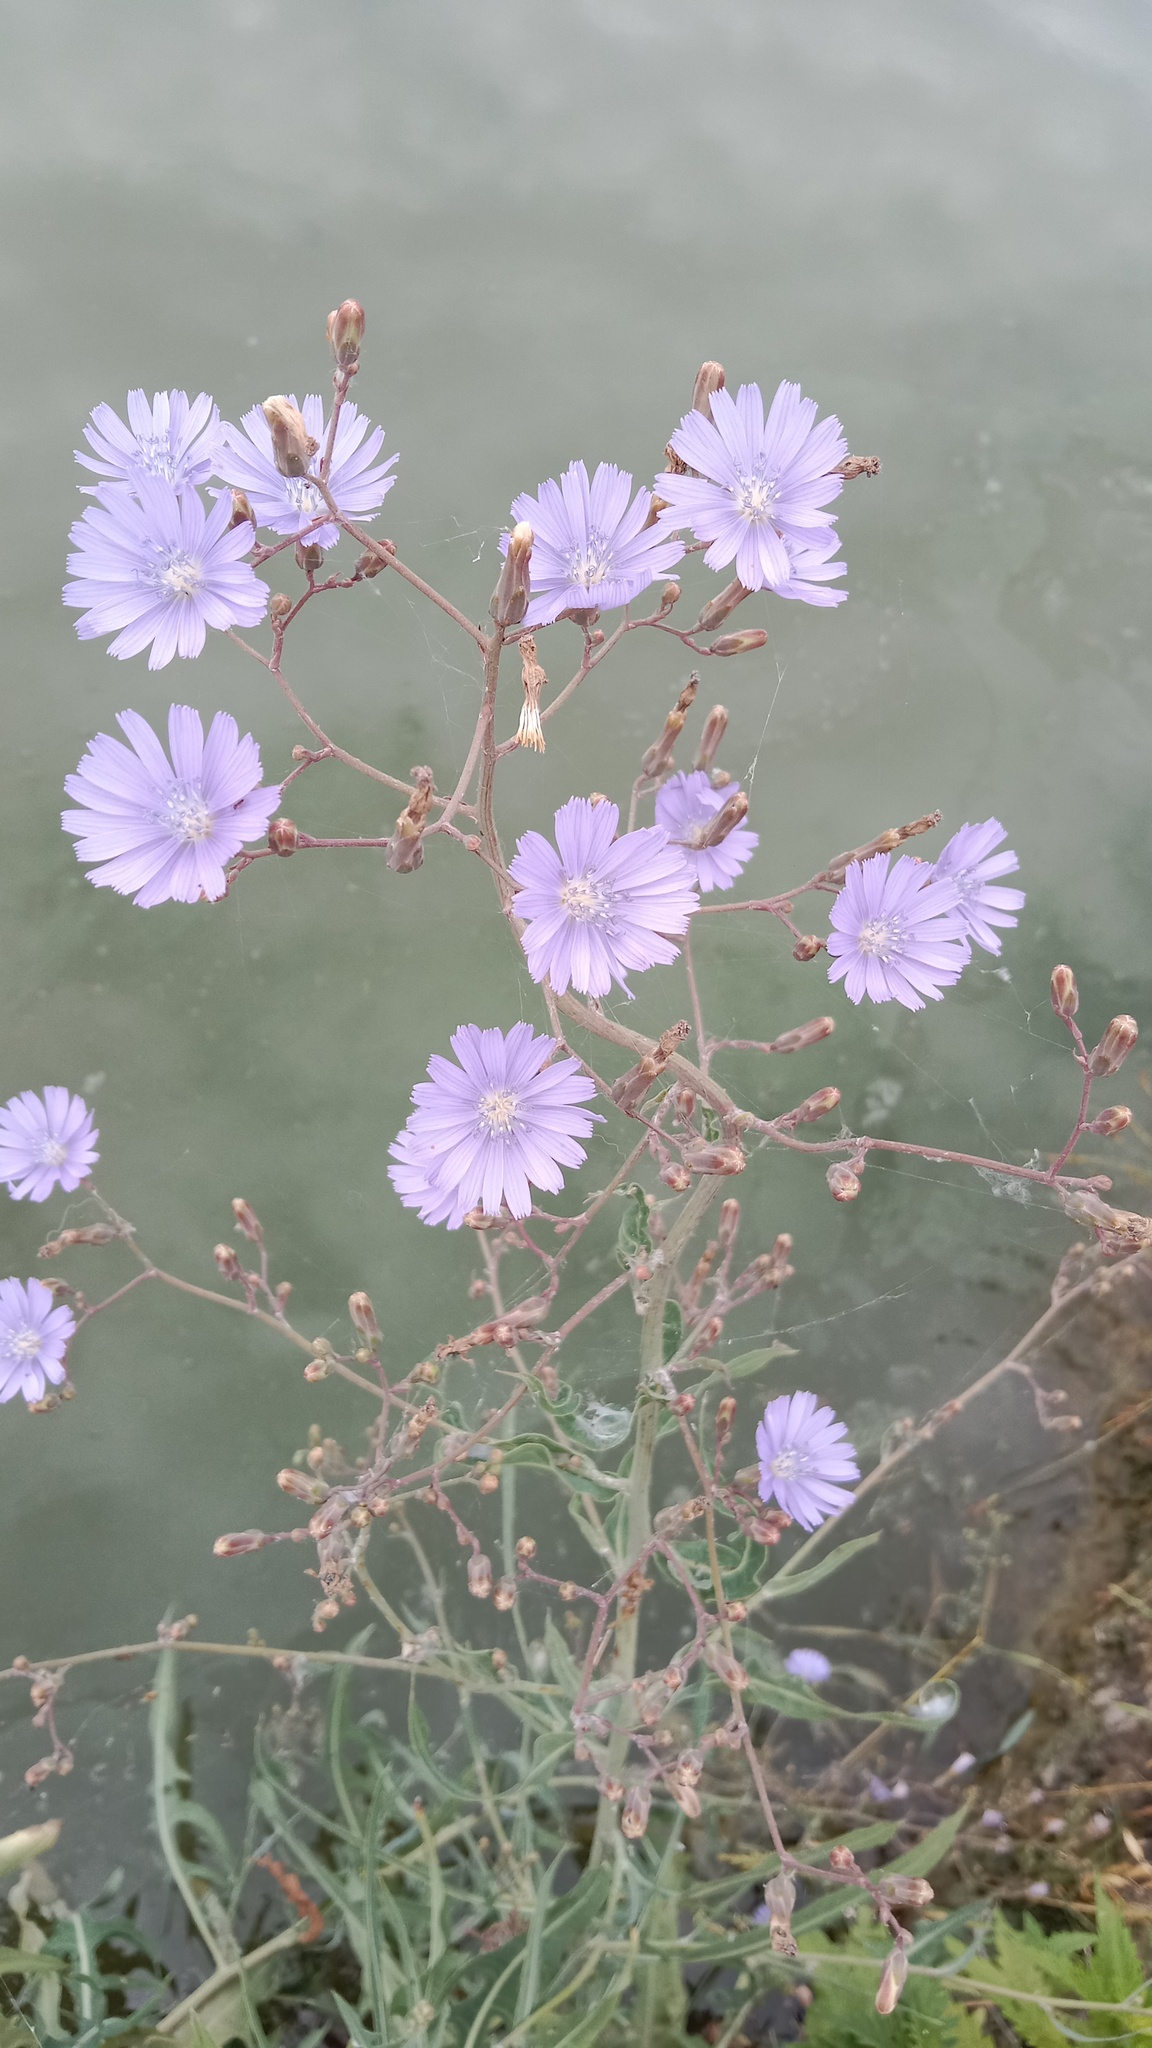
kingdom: Plantae
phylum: Tracheophyta
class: Magnoliopsida
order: Asterales
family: Asteraceae
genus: Lactuca
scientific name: Lactuca tatarica
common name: Blue lettuce
